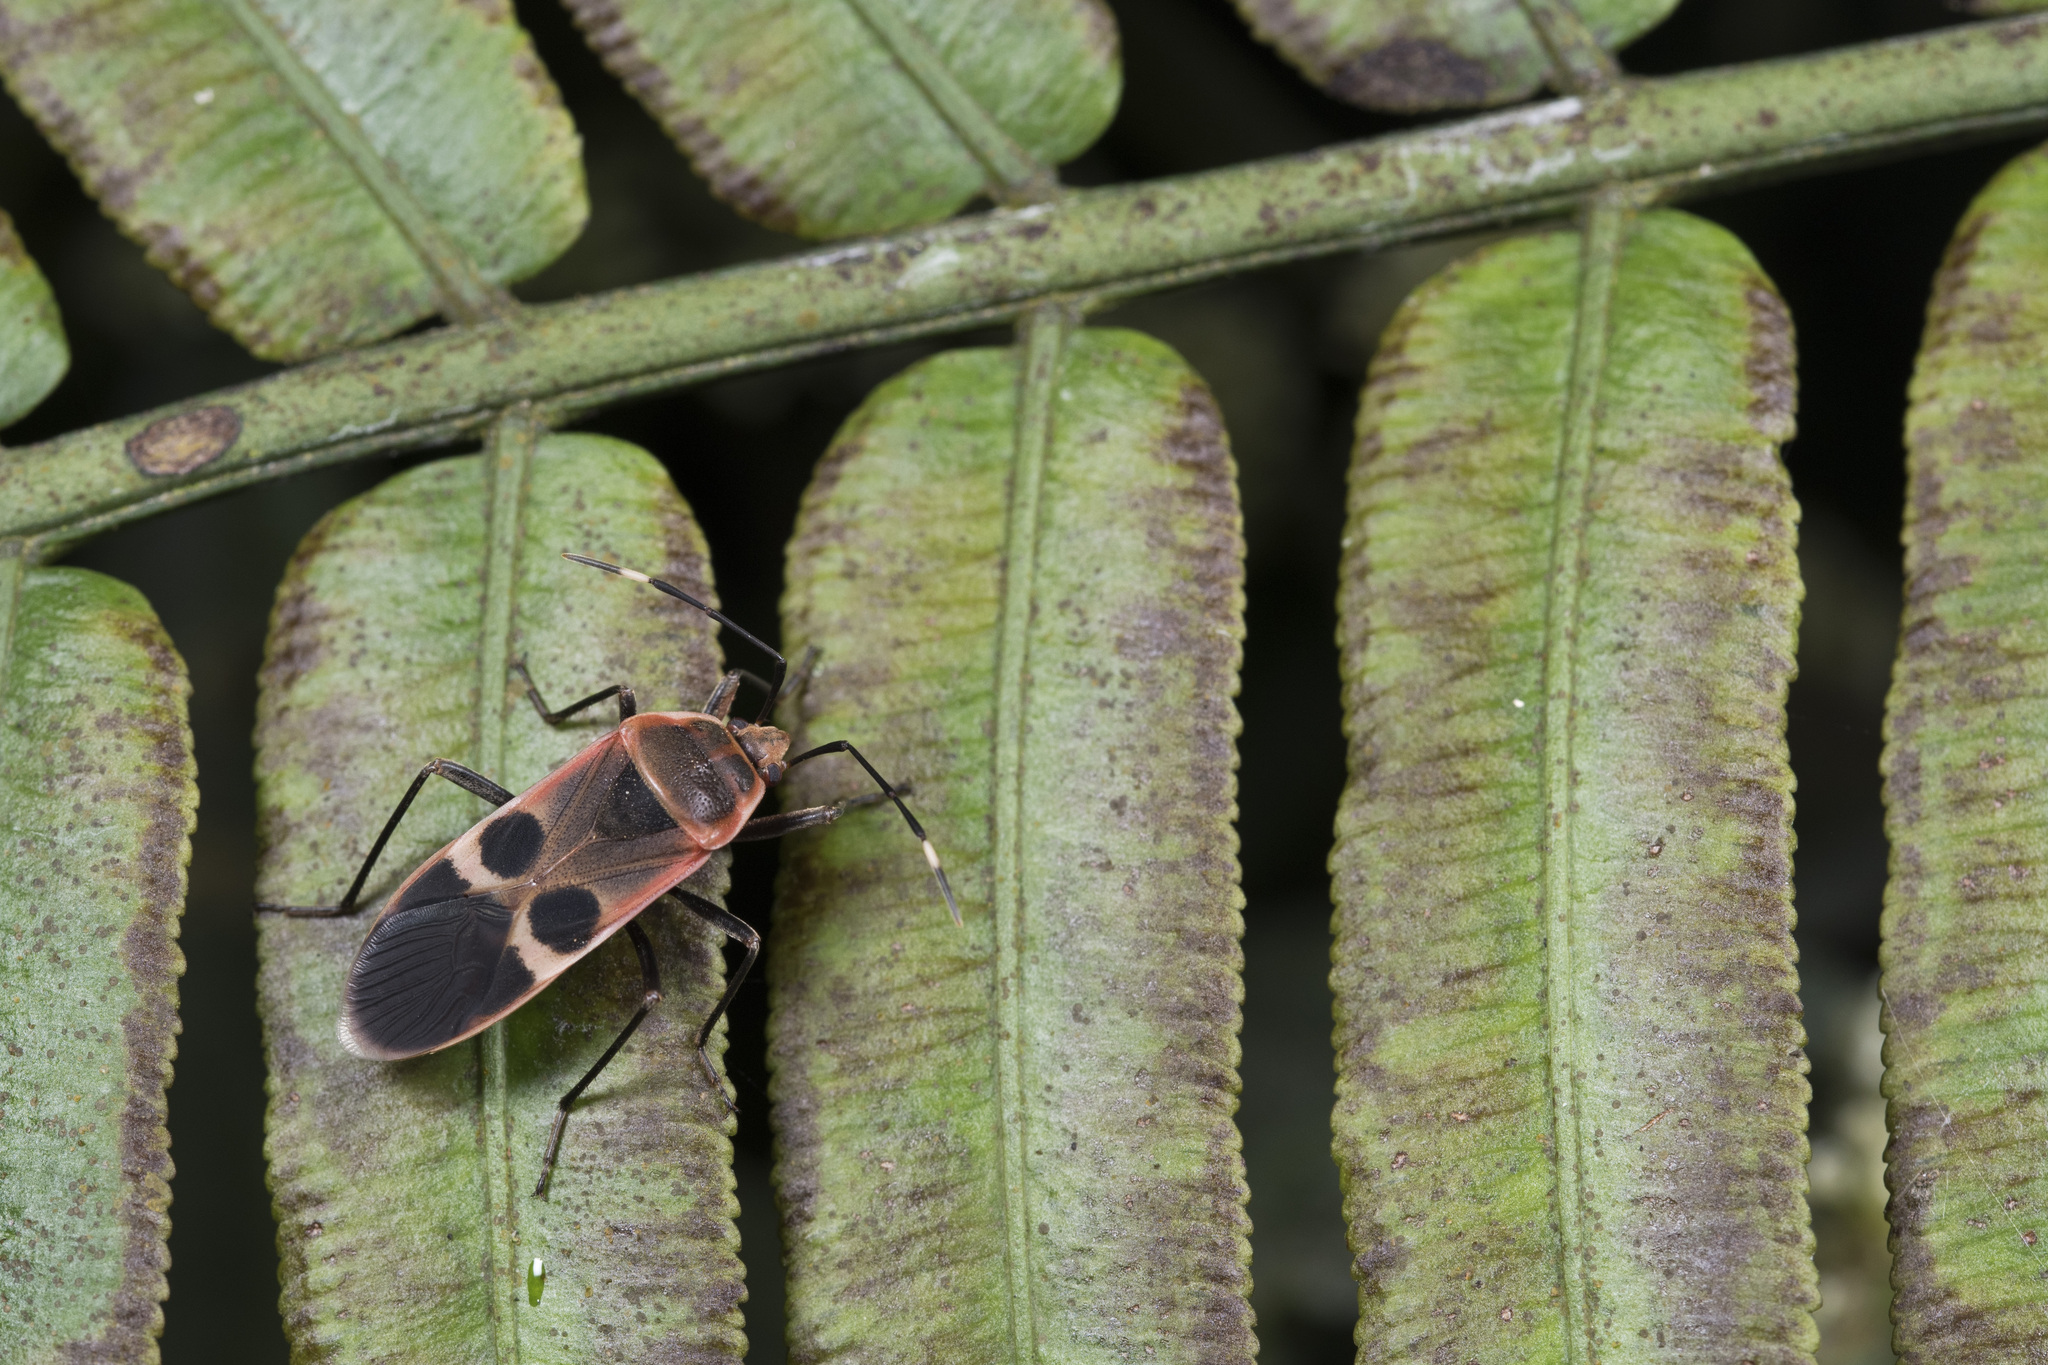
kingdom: Animalia
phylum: Arthropoda
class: Insecta
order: Hemiptera
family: Largidae
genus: Physopelta
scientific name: Physopelta gutta
